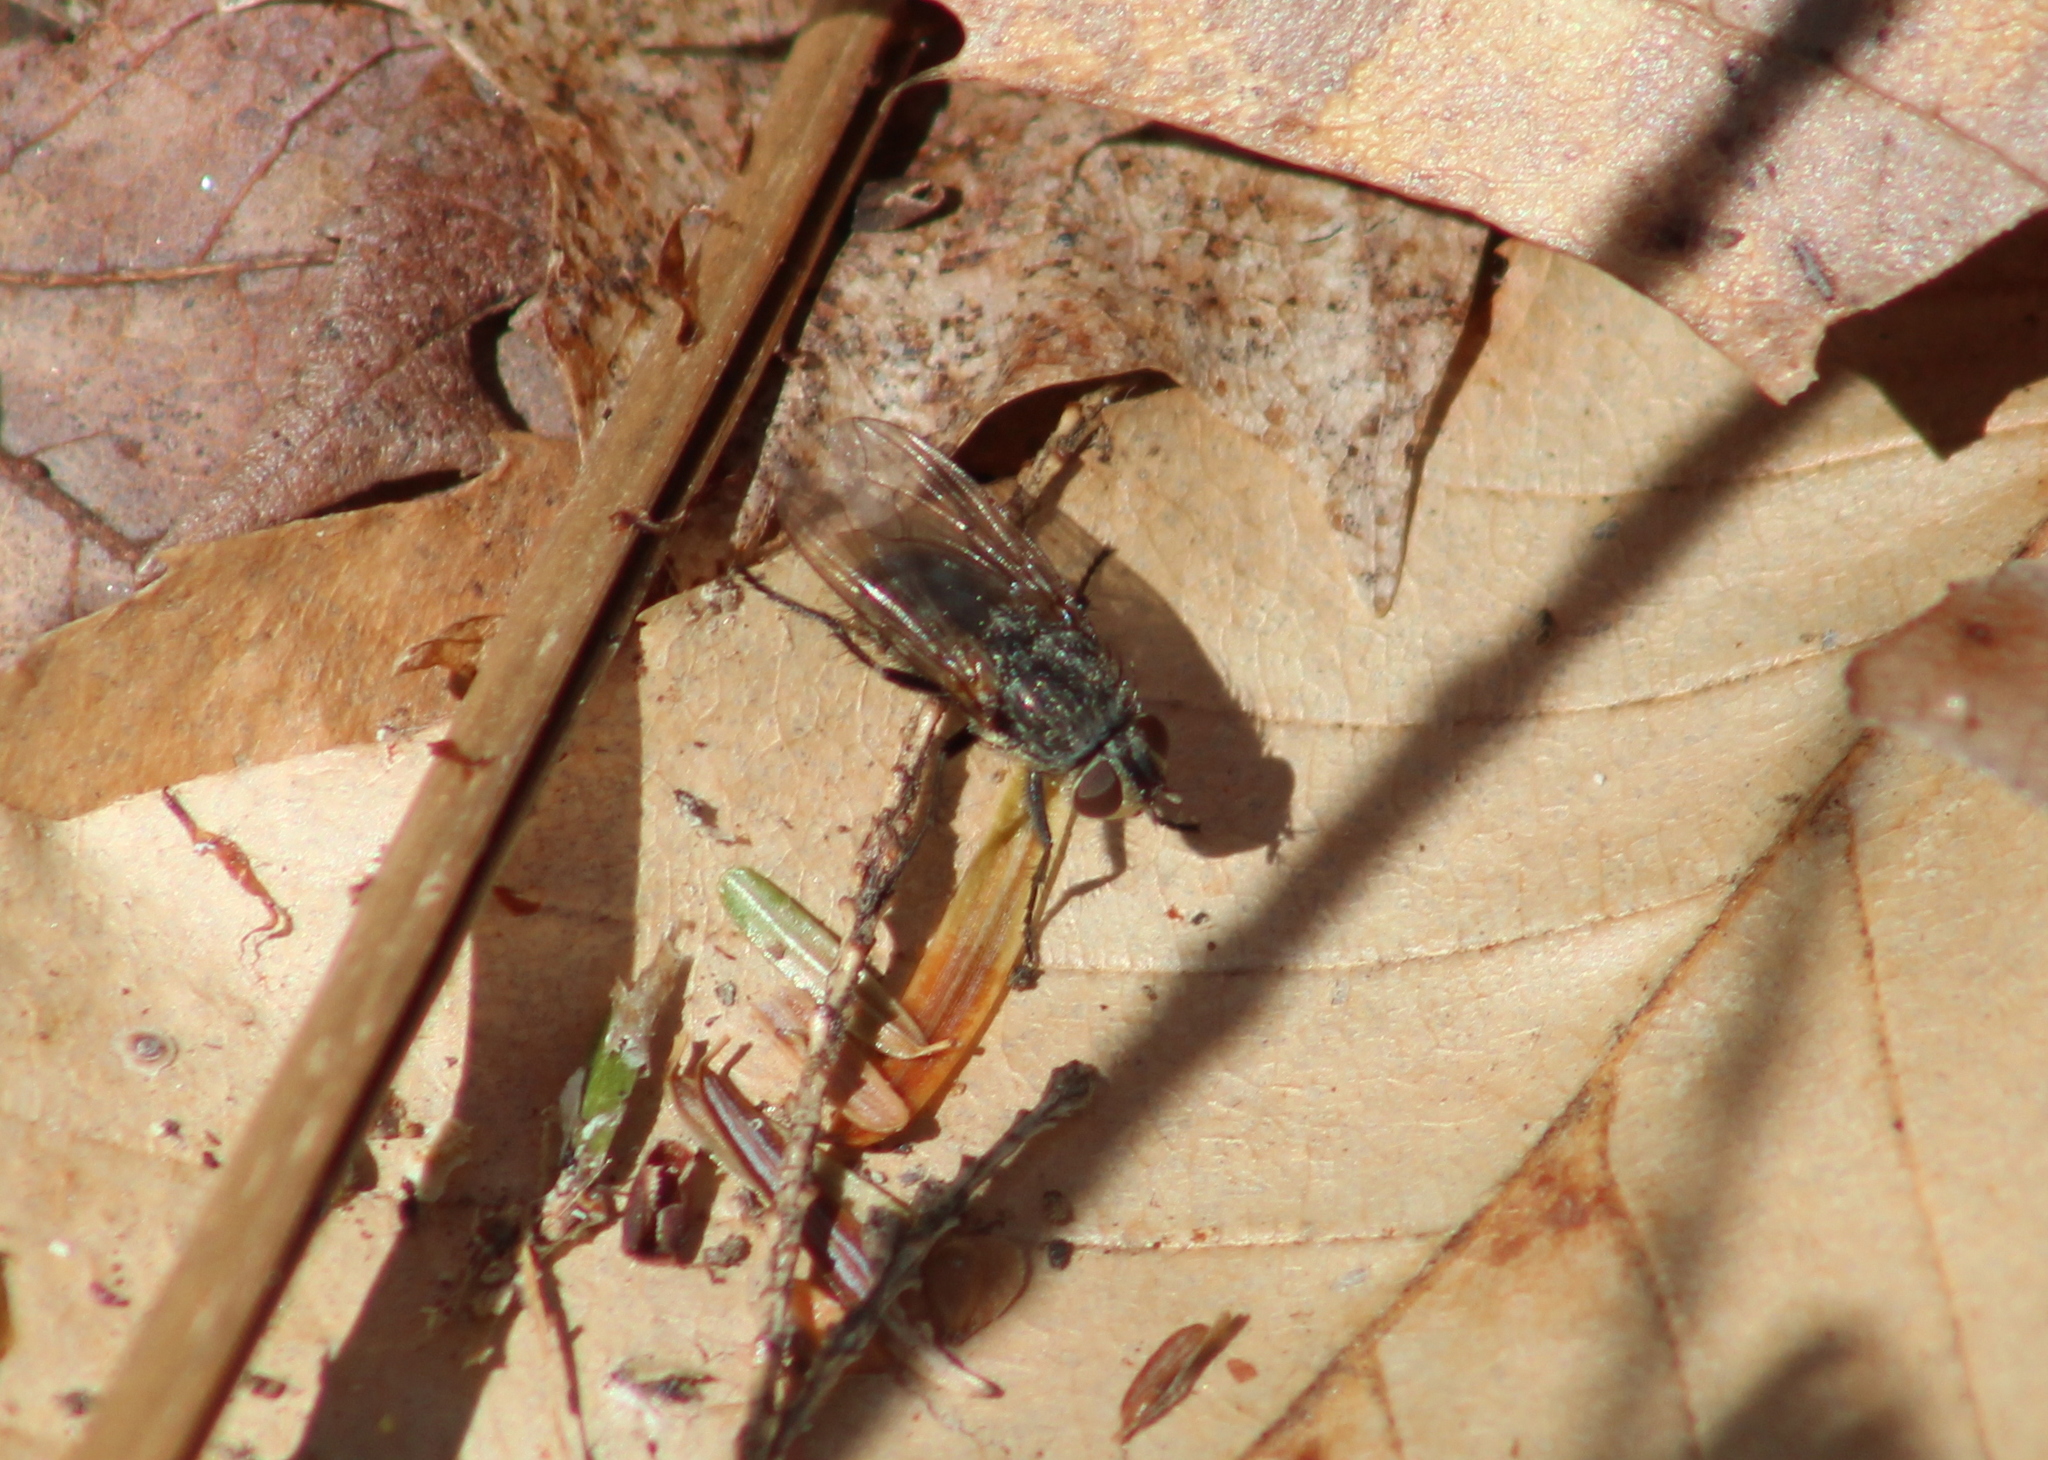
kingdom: Animalia
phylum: Arthropoda
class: Insecta
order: Diptera
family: Polleniidae
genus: Pollenia
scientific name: Pollenia
